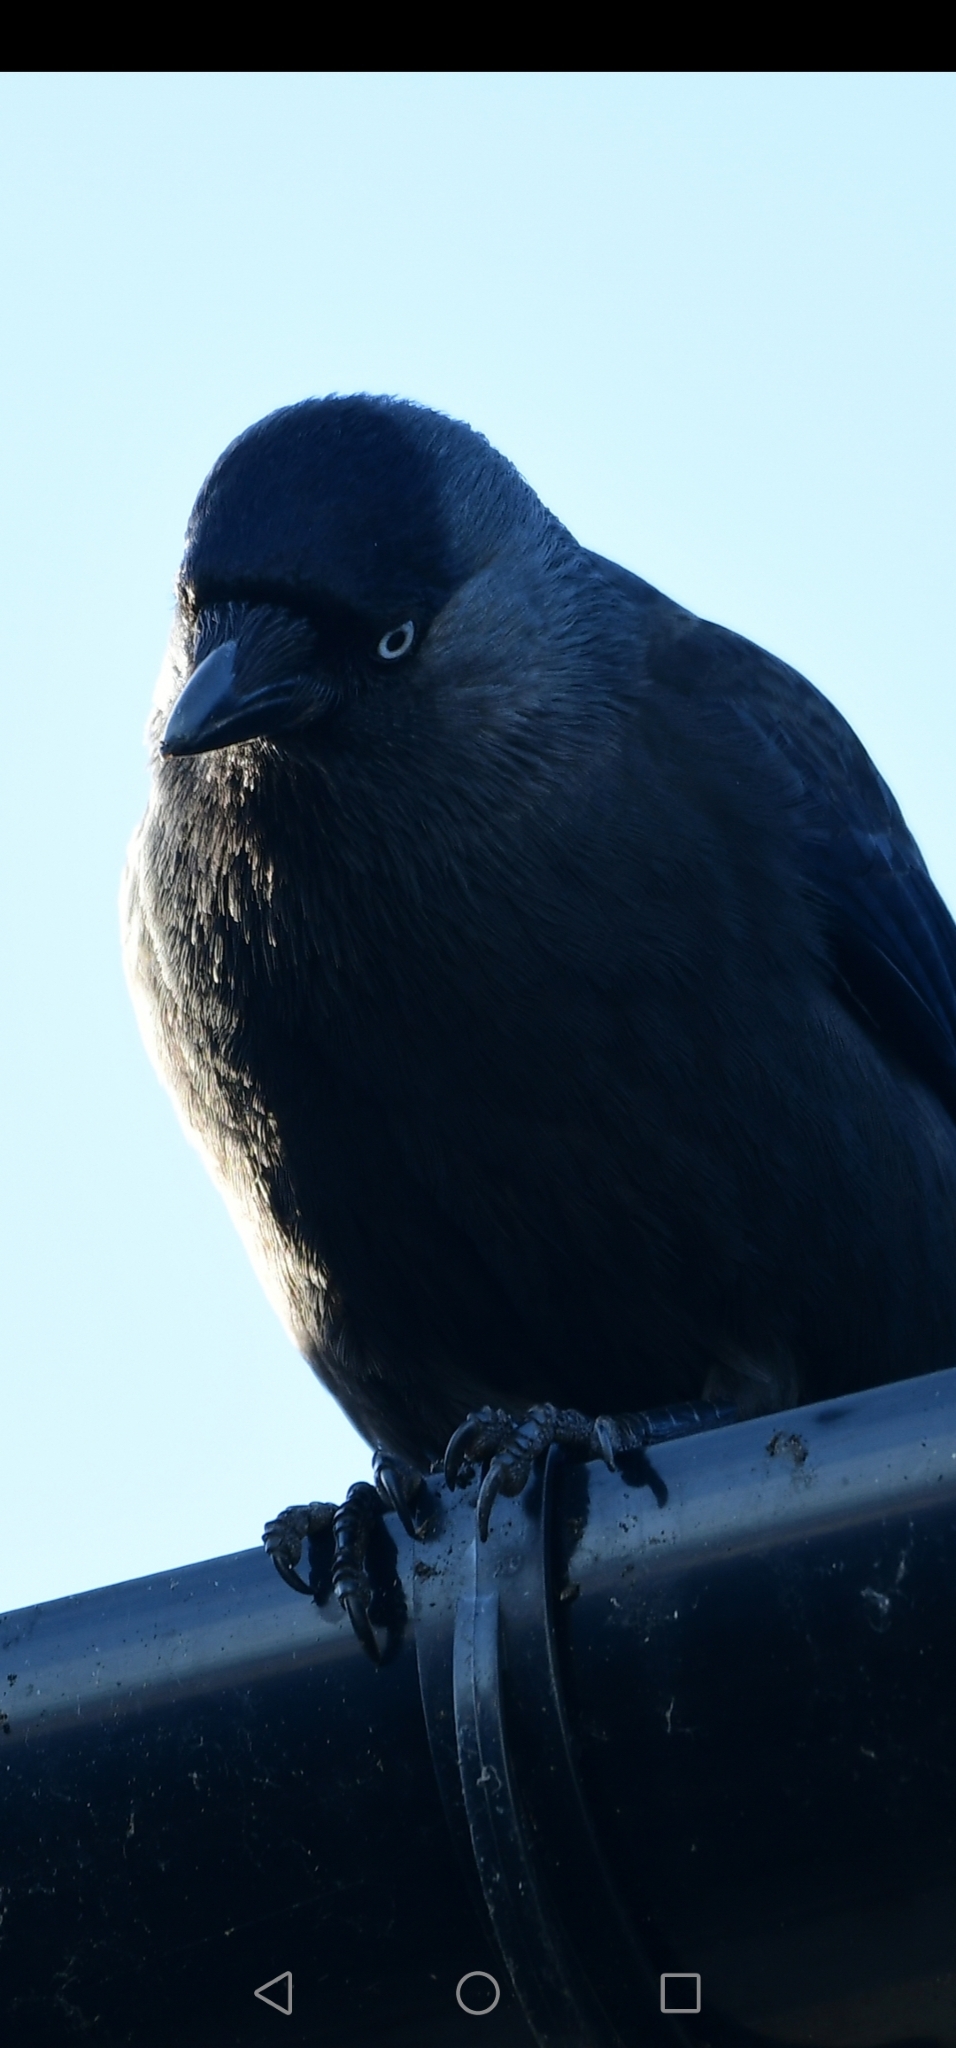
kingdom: Animalia
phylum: Chordata
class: Aves
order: Passeriformes
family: Corvidae
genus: Coloeus
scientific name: Coloeus monedula
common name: Western jackdaw
